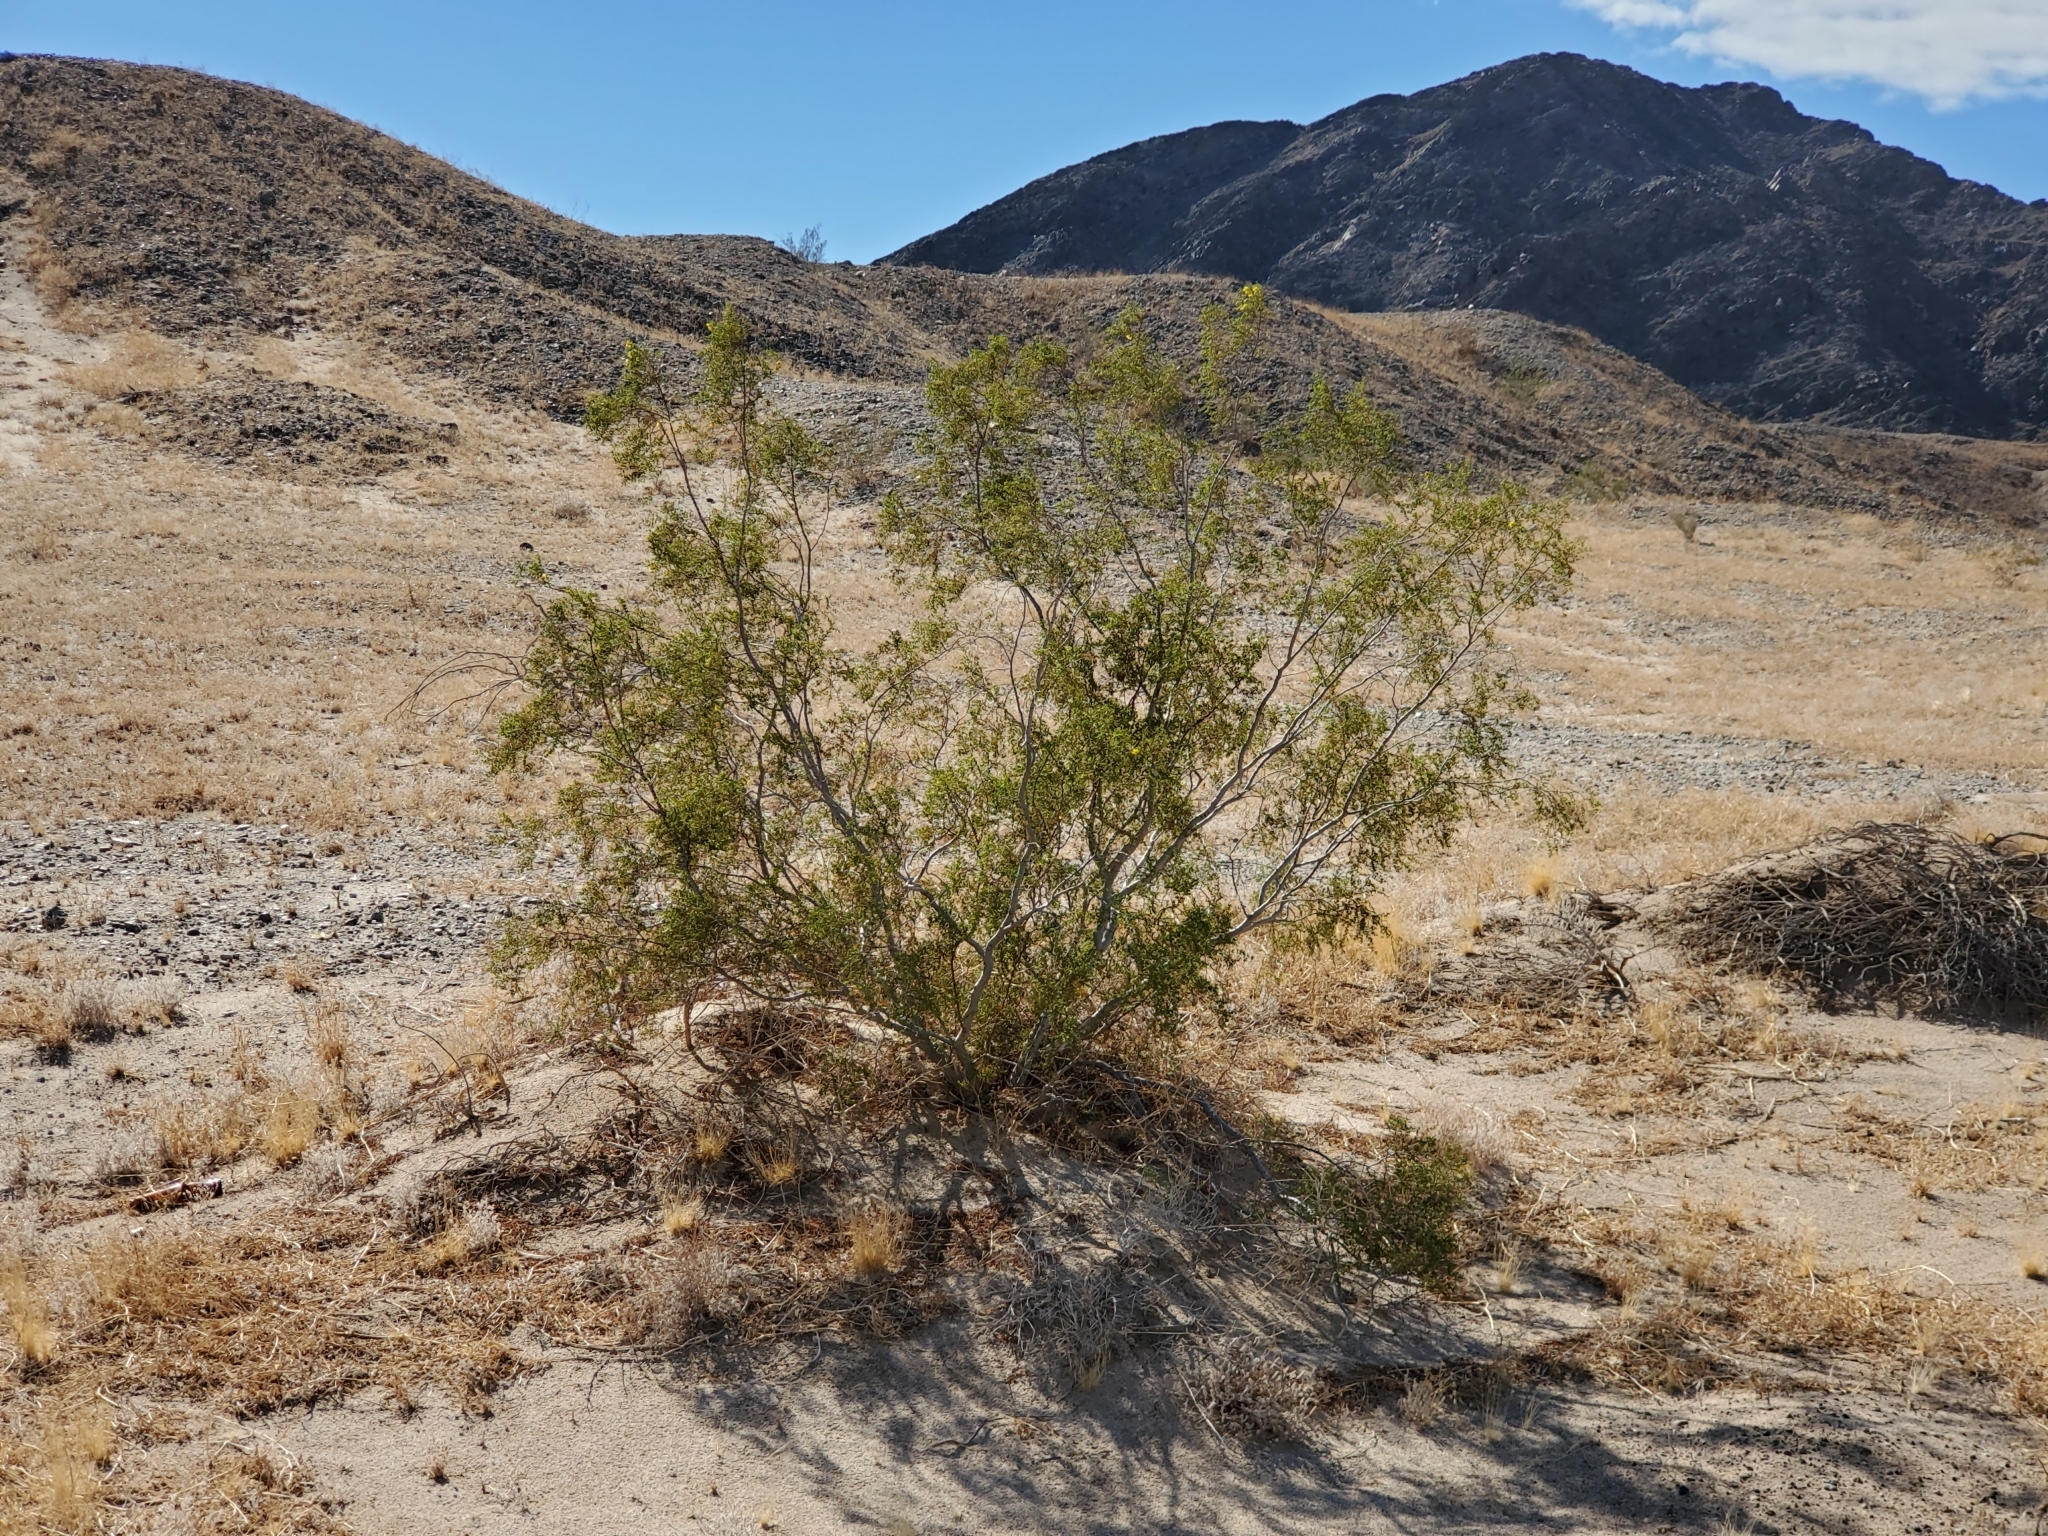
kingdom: Plantae
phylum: Tracheophyta
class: Magnoliopsida
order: Zygophyllales
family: Zygophyllaceae
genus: Larrea
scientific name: Larrea tridentata
